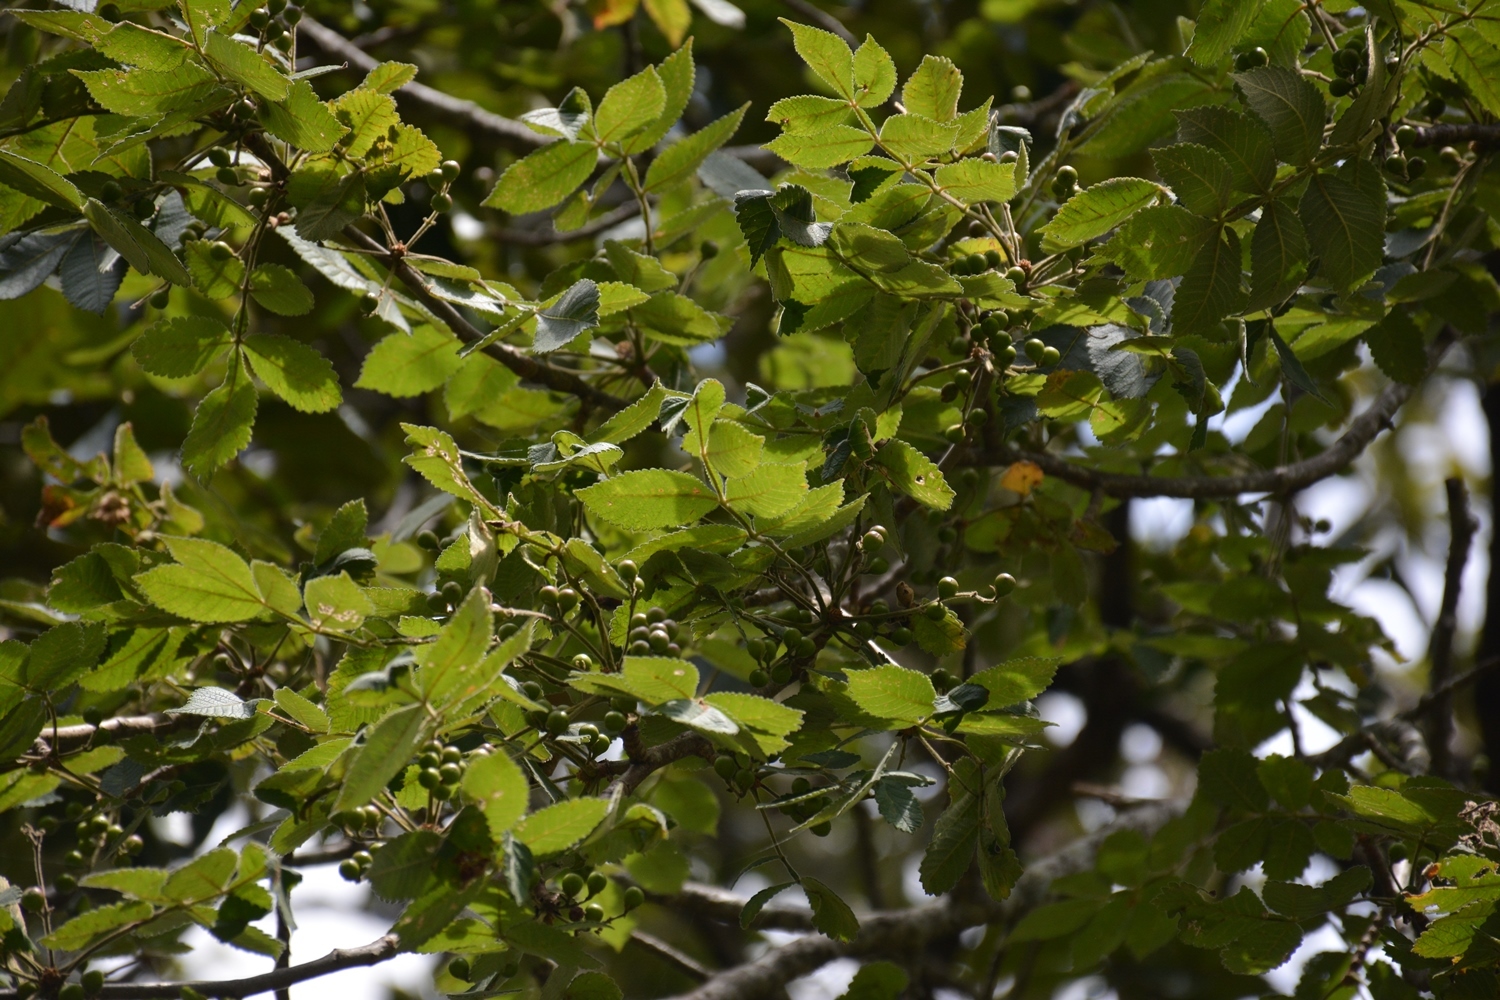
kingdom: Plantae
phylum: Tracheophyta
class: Magnoliopsida
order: Sapindales
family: Burseraceae
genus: Bursera
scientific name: Bursera excelsa
